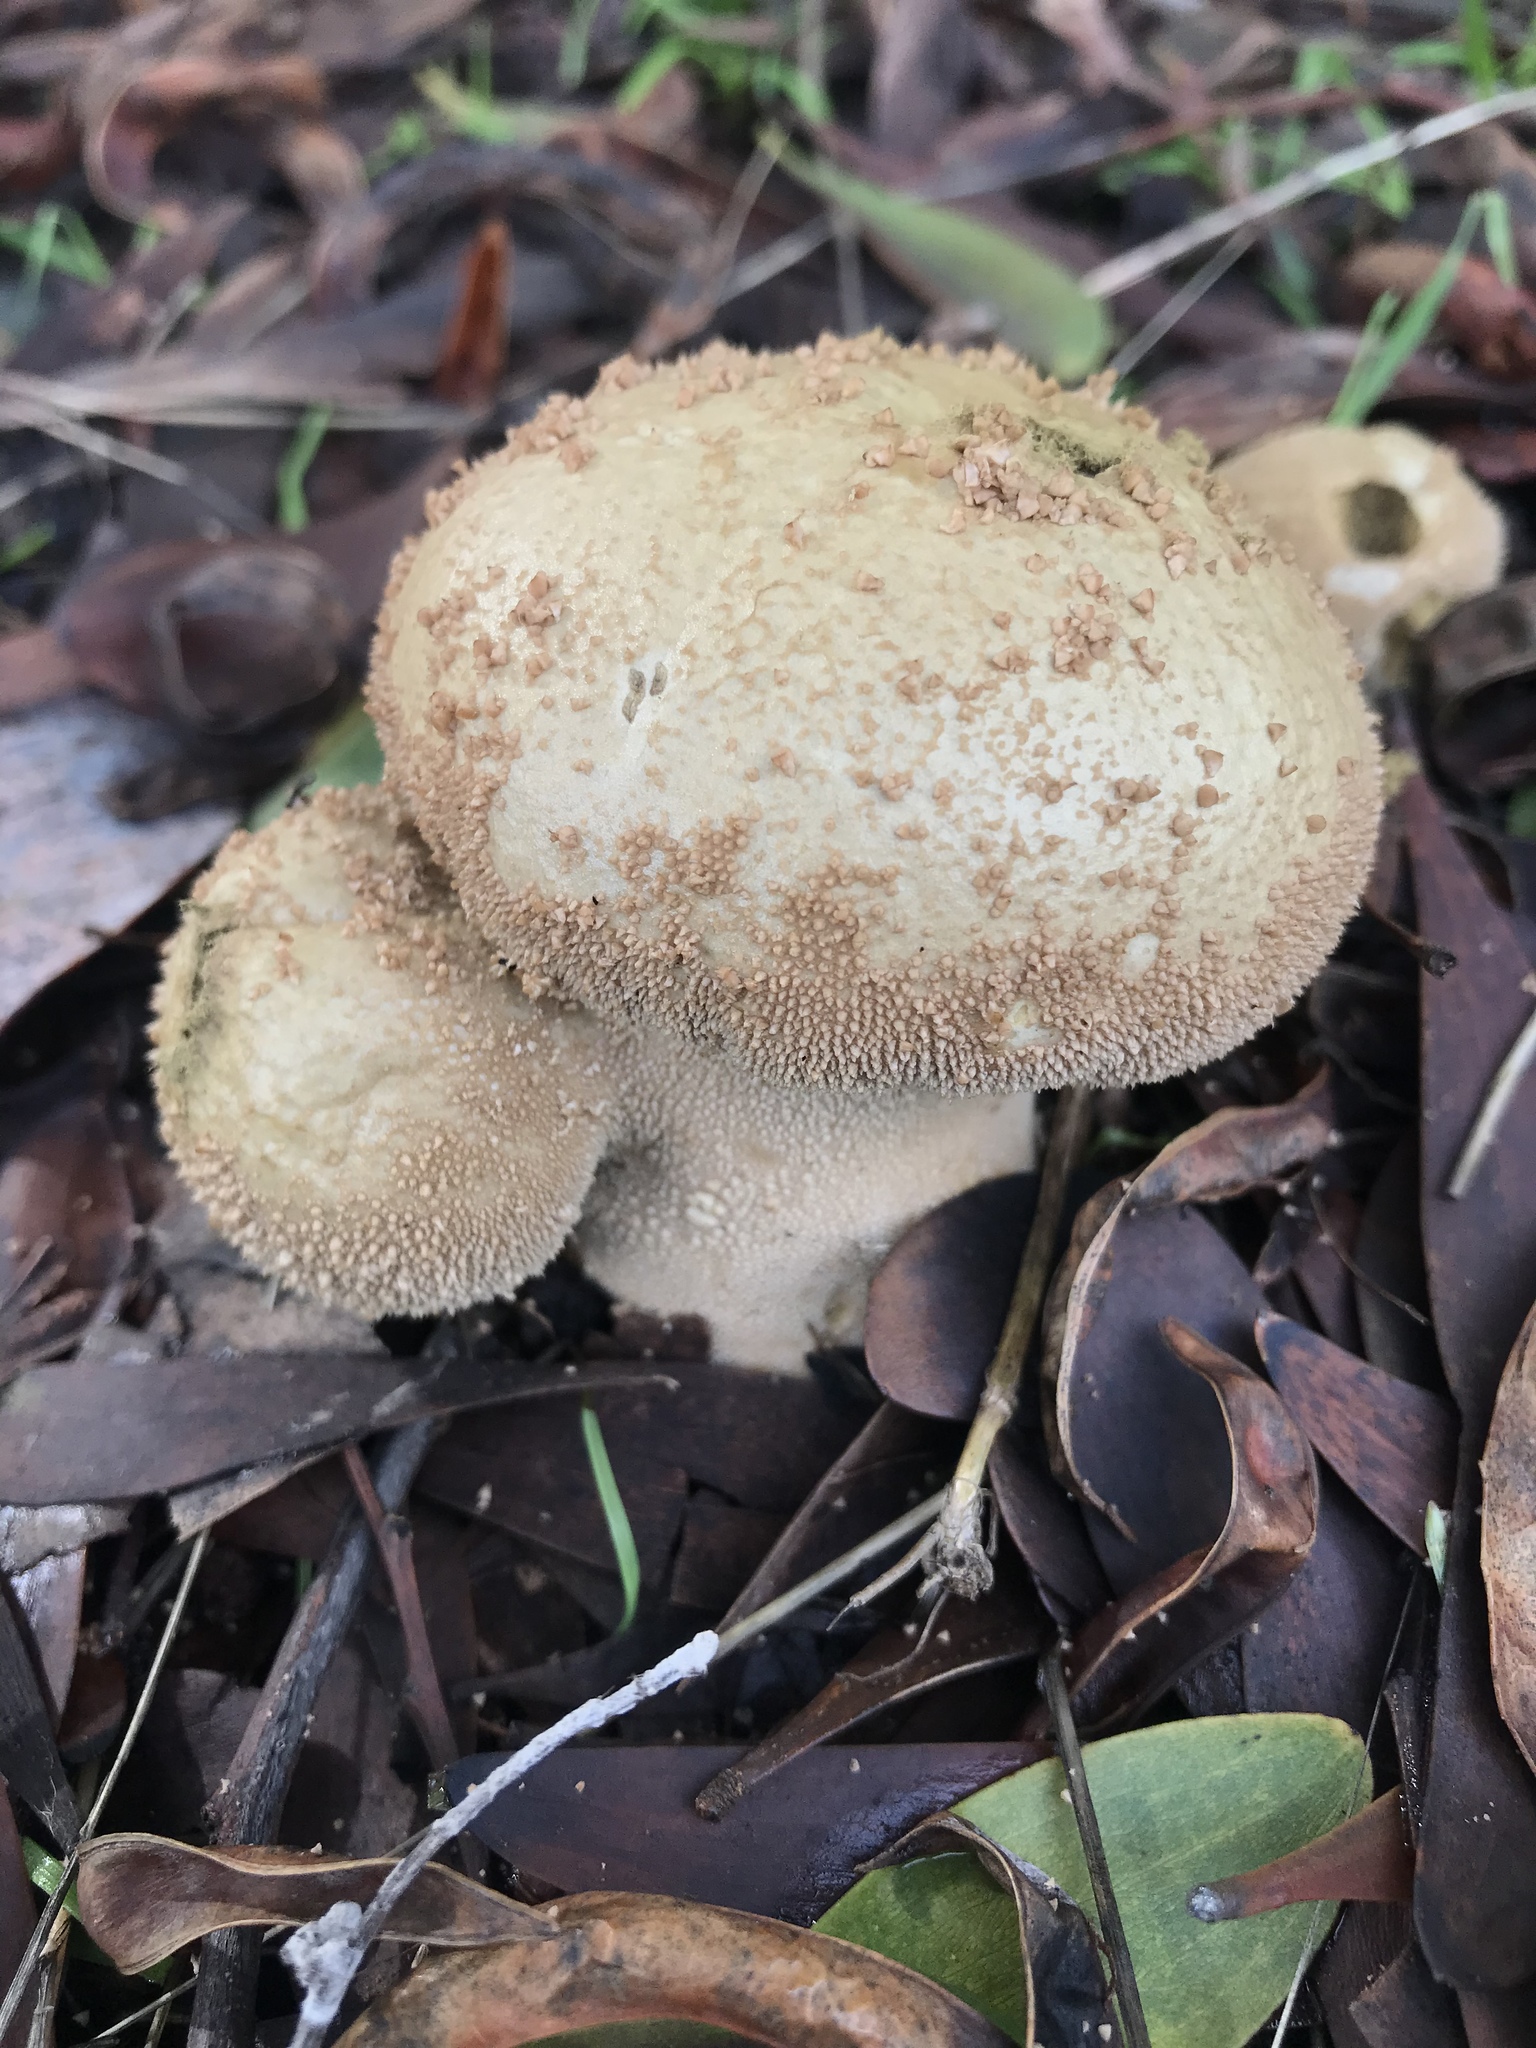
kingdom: Fungi
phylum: Basidiomycota
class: Agaricomycetes
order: Agaricales
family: Lycoperdaceae
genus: Lycoperdon
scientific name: Lycoperdon perlatum
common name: Common puffball
